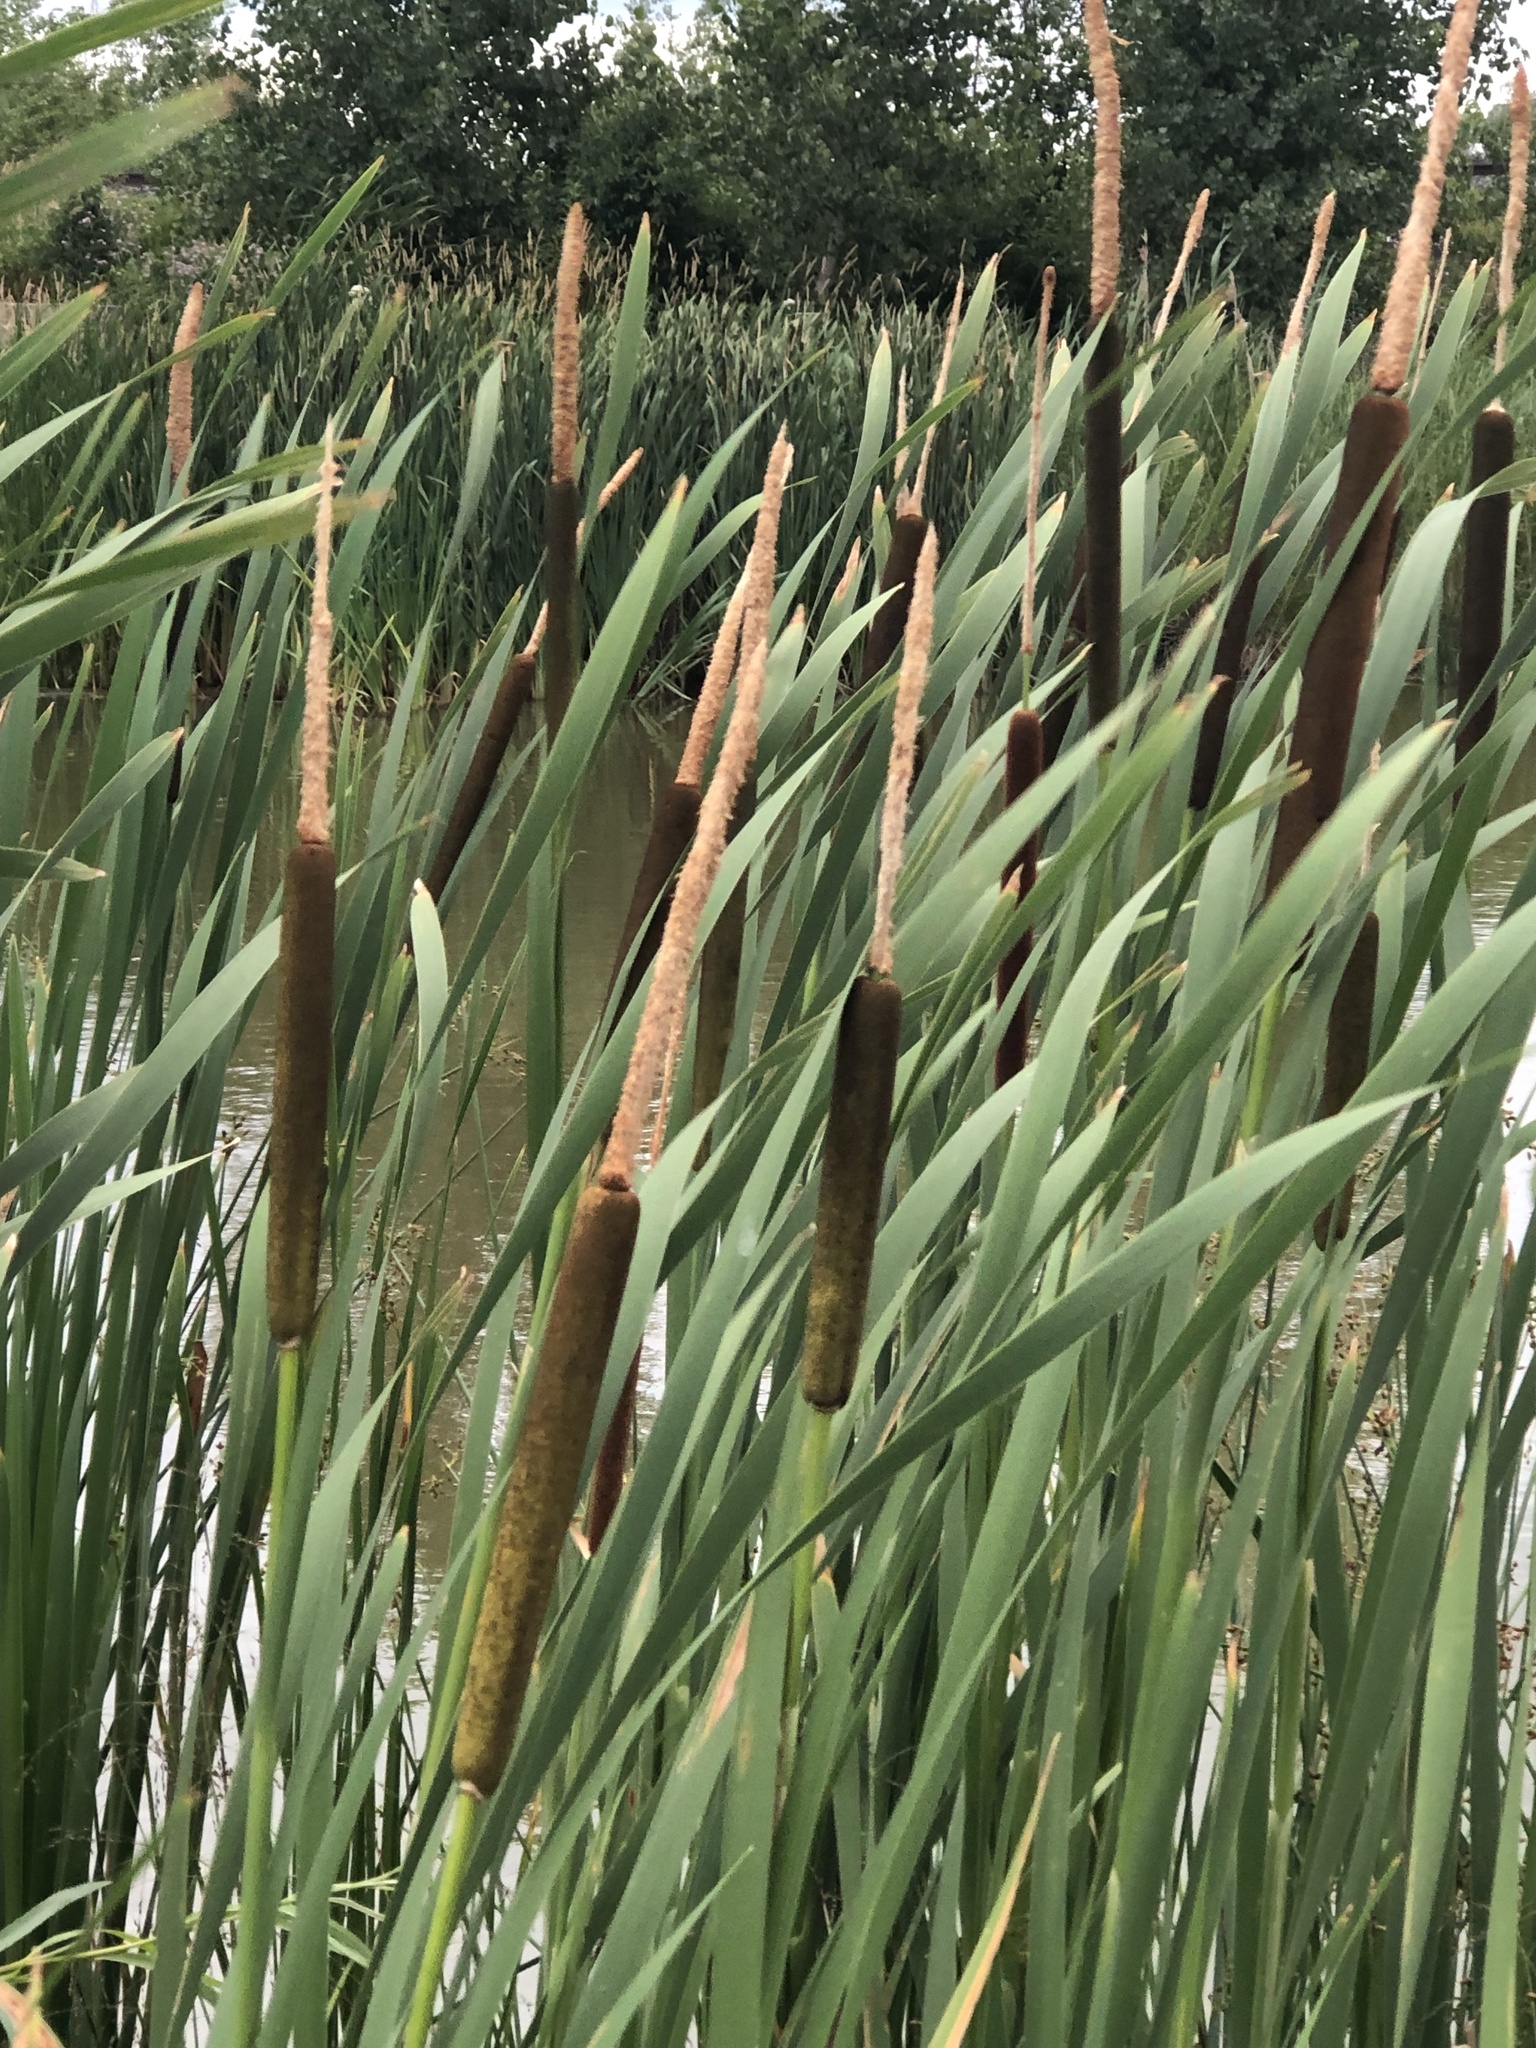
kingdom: Plantae
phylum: Tracheophyta
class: Liliopsida
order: Poales
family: Typhaceae
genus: Typha
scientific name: Typha latifolia
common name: Broadleaf cattail
